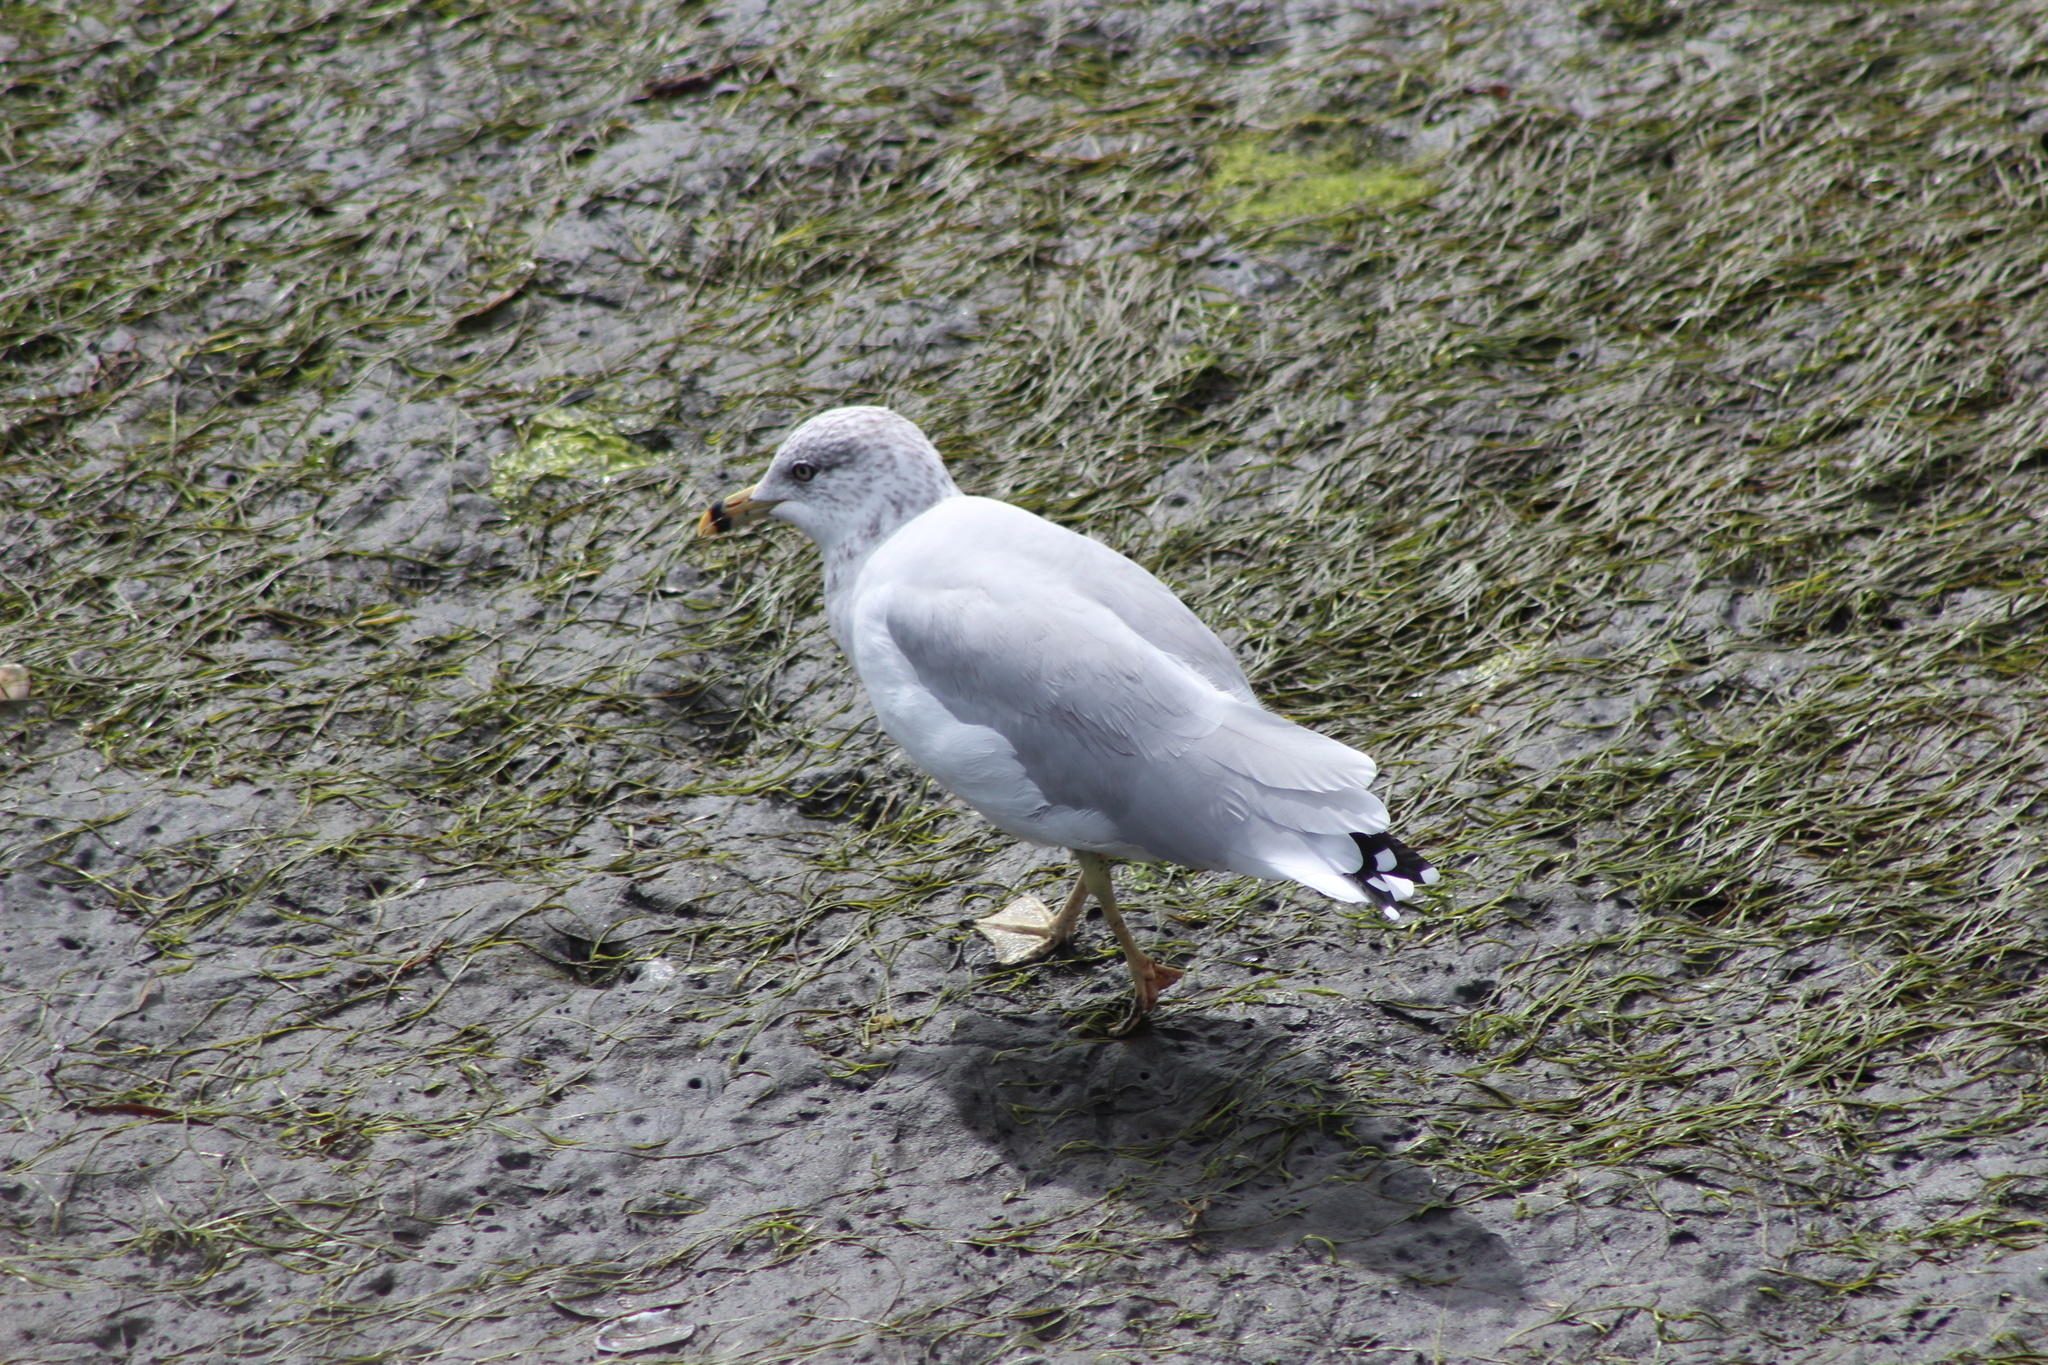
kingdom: Animalia
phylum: Chordata
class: Aves
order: Charadriiformes
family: Laridae
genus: Larus
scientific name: Larus delawarensis
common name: Ring-billed gull
